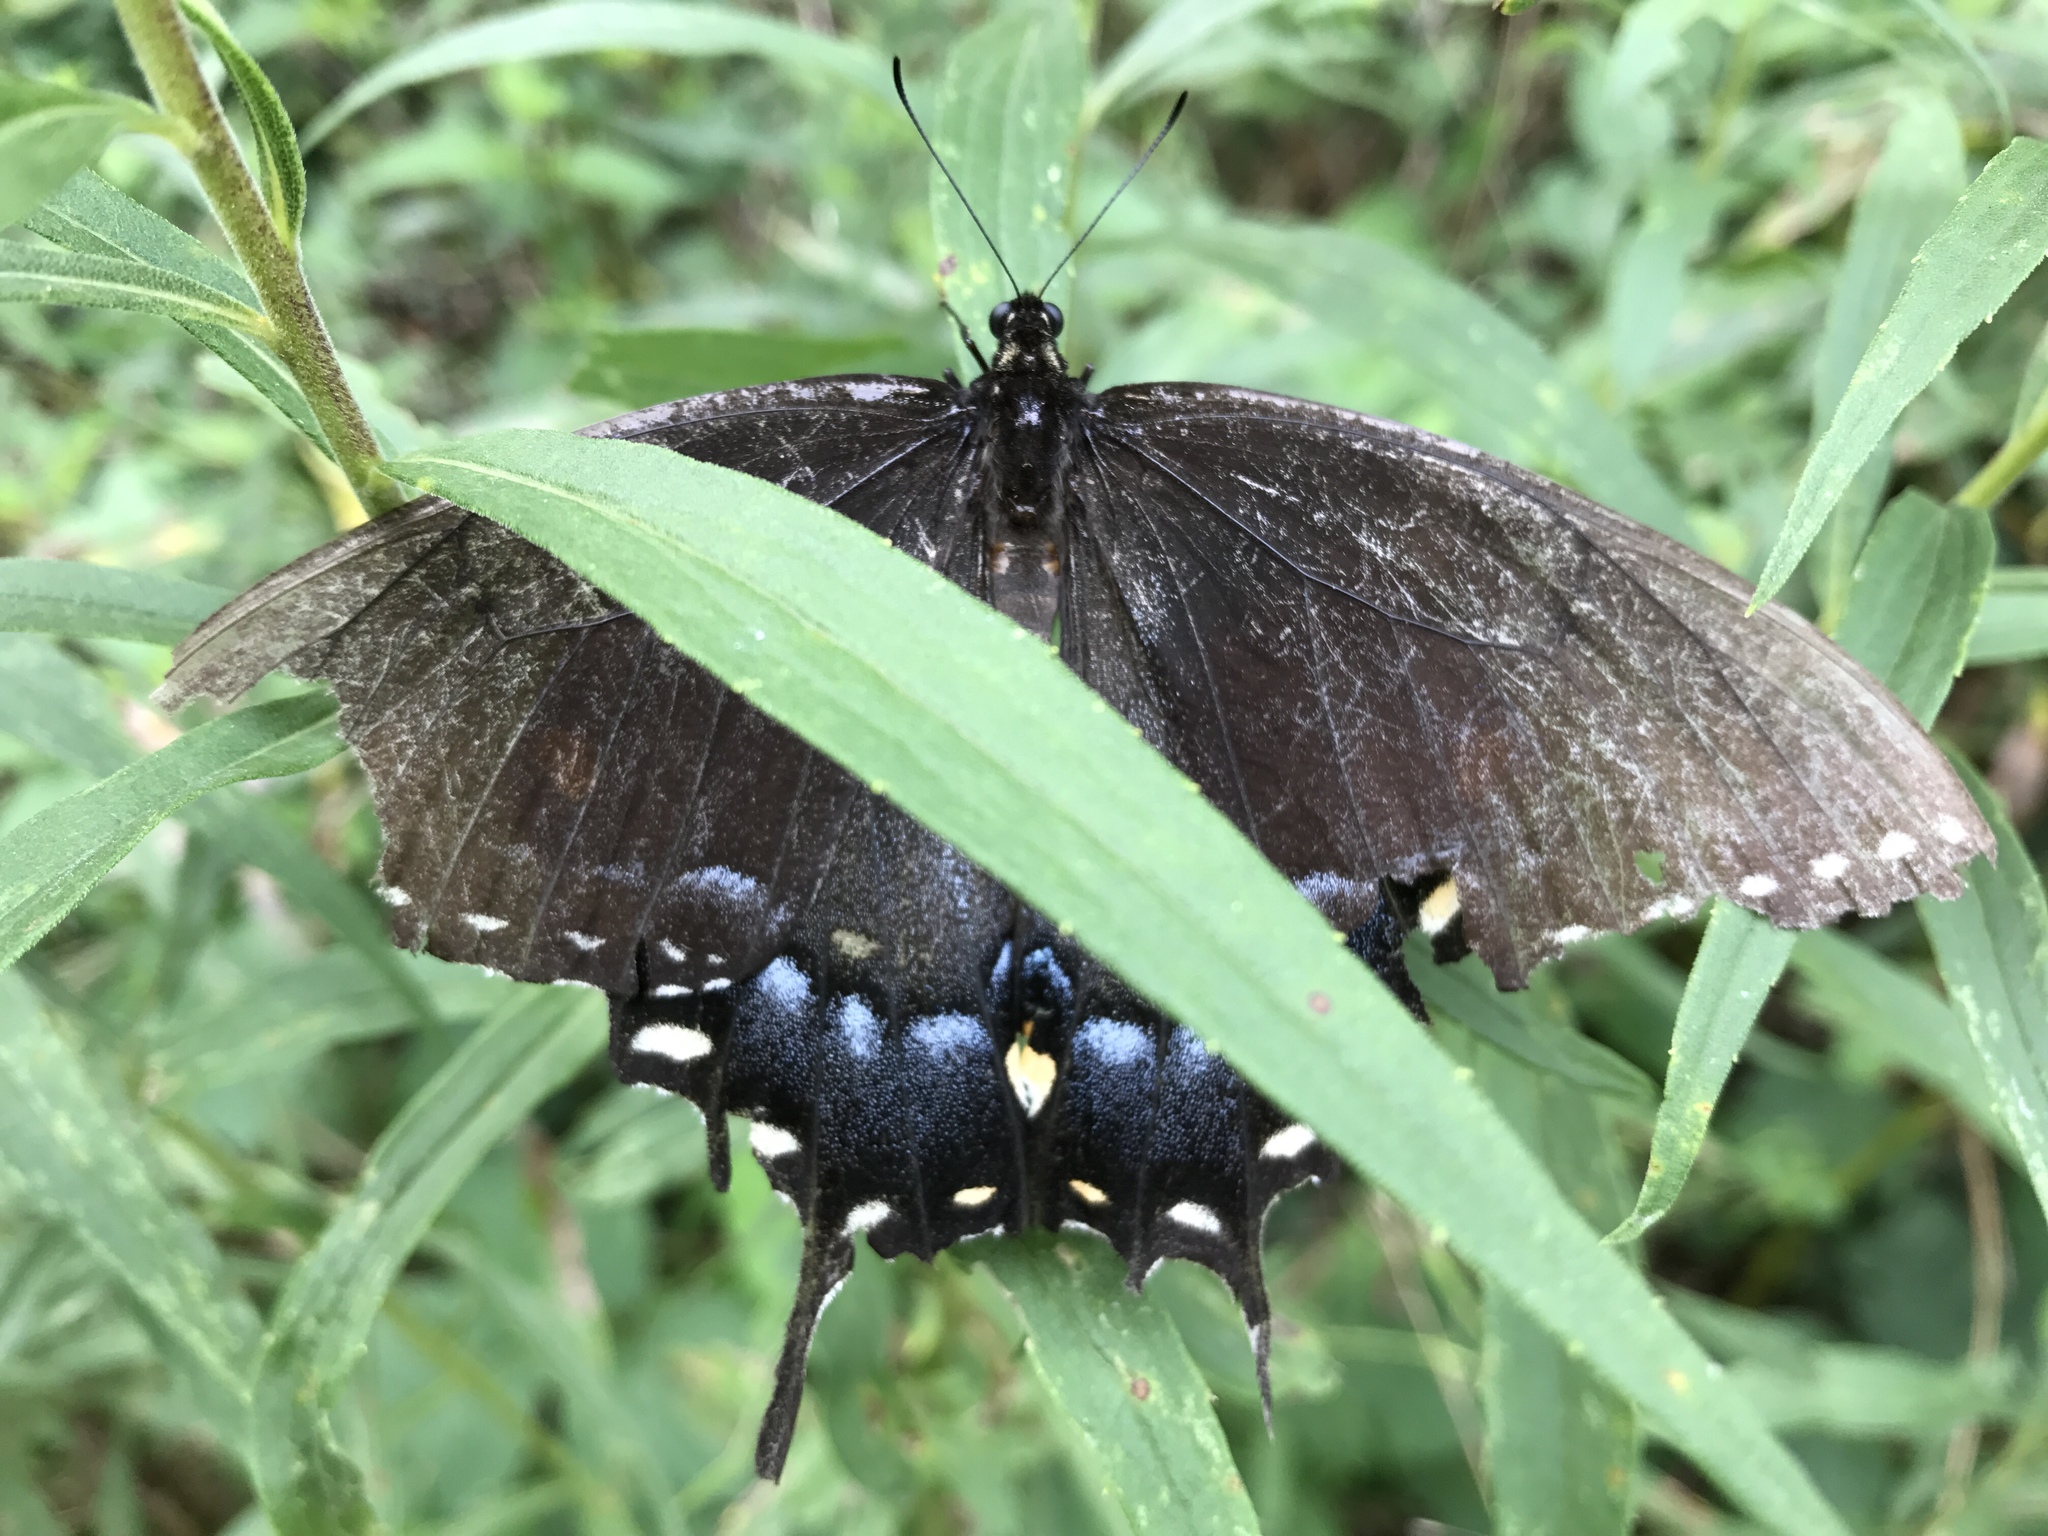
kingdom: Animalia
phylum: Arthropoda
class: Insecta
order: Lepidoptera
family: Papilionidae
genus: Papilio
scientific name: Papilio glaucus
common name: Tiger swallowtail
